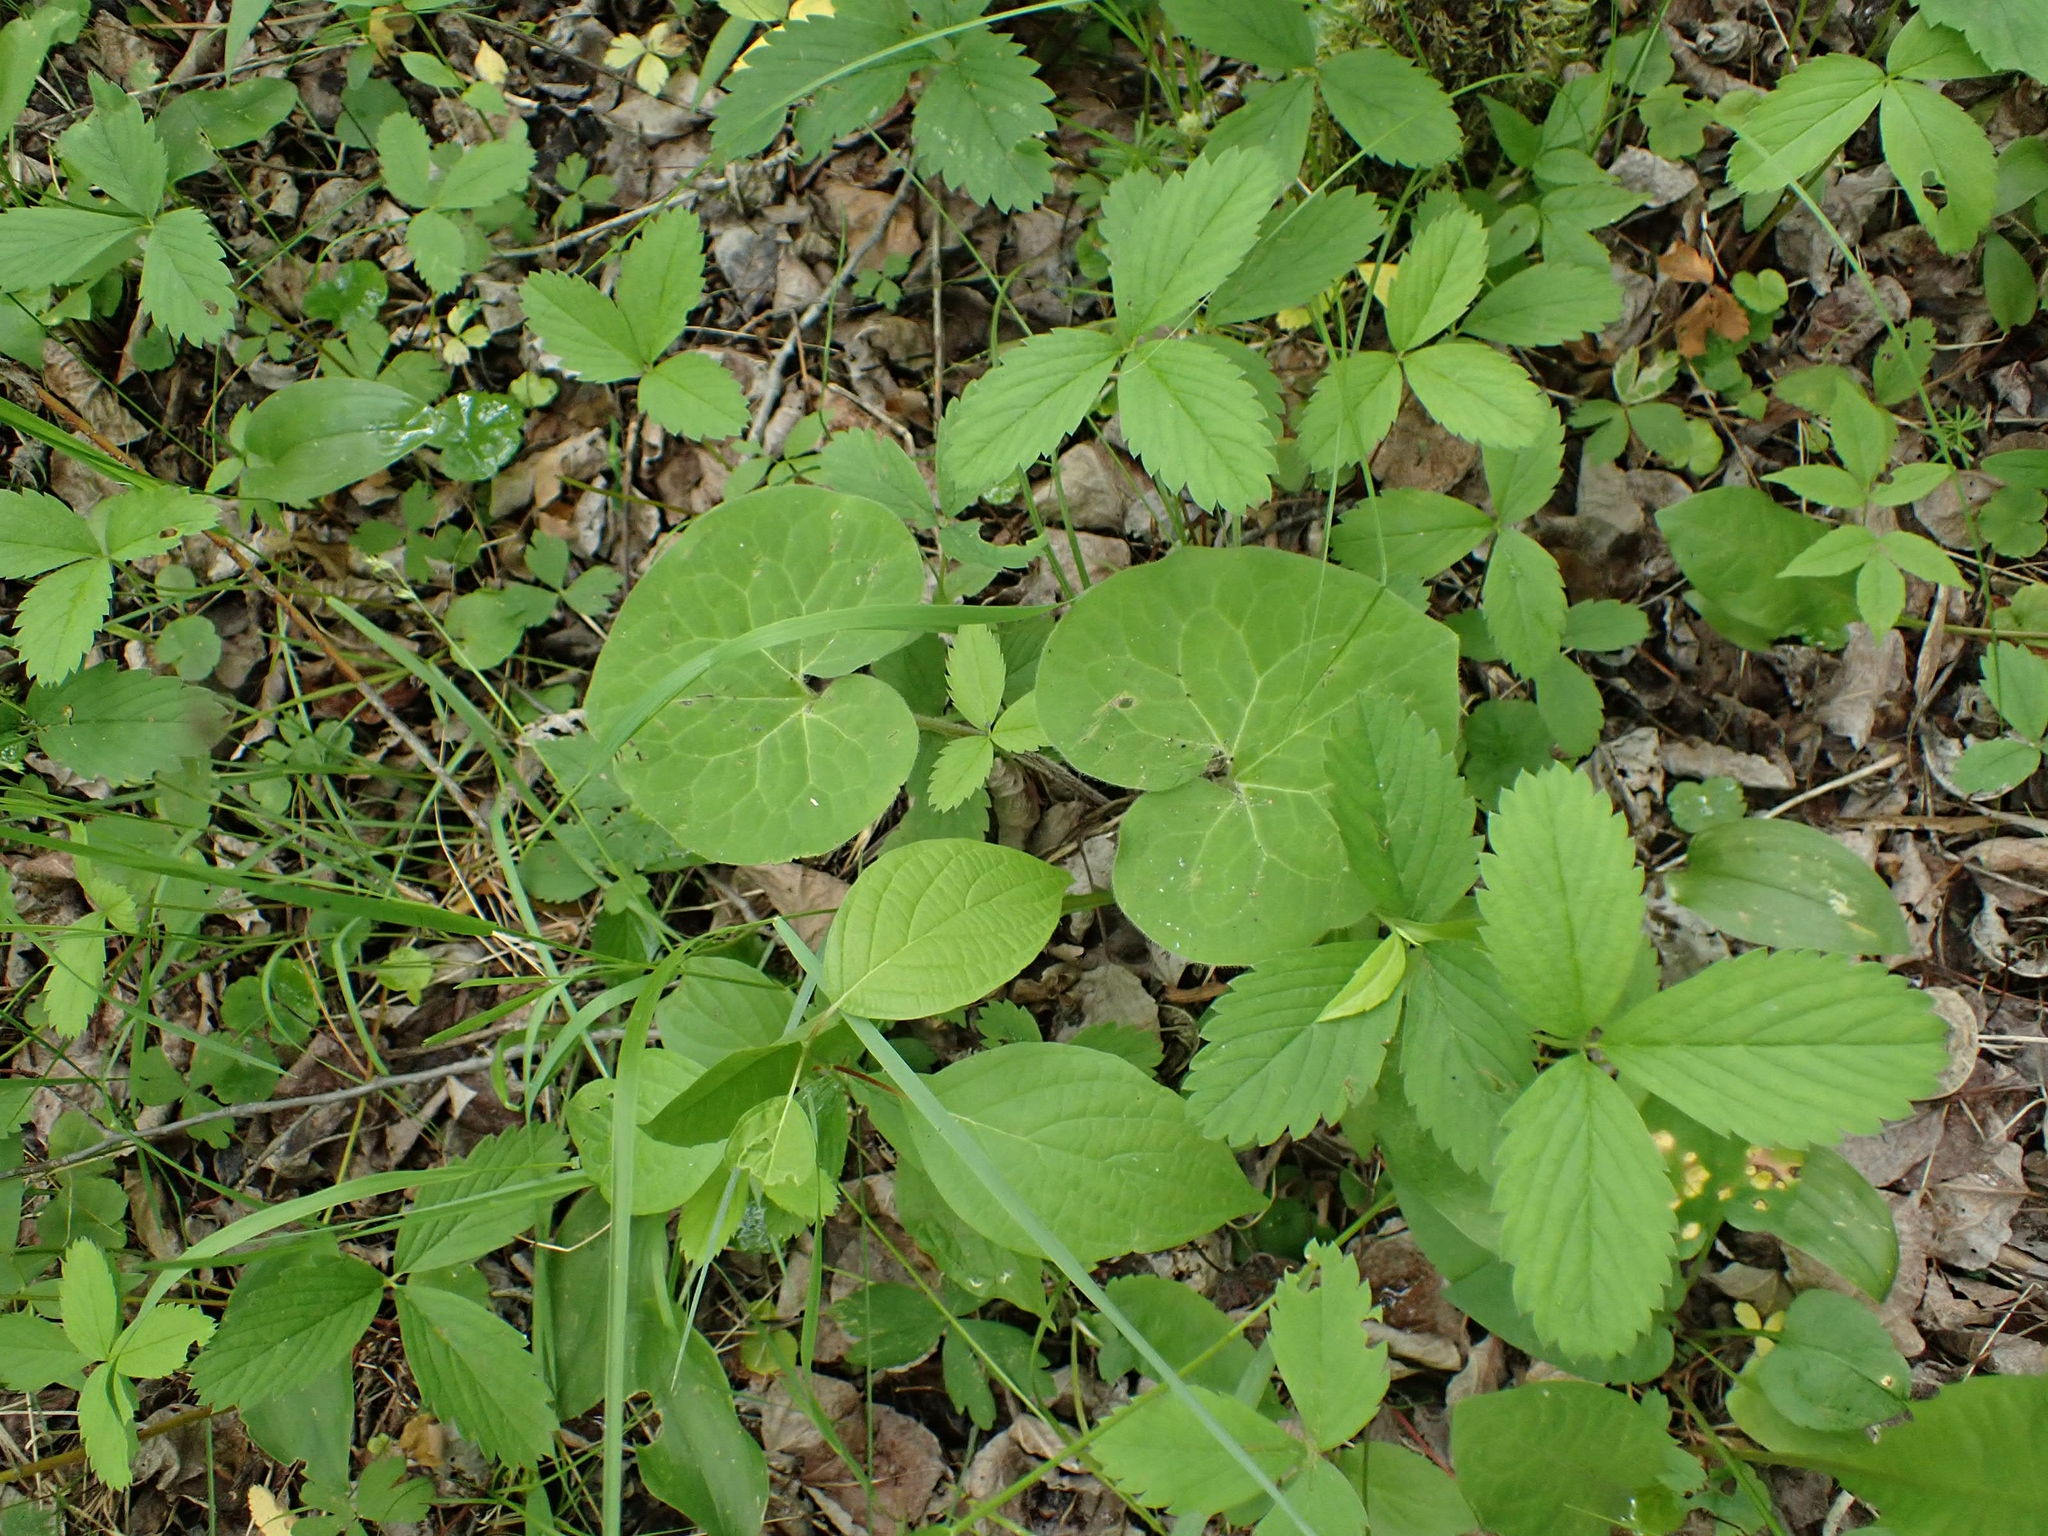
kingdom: Plantae
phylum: Tracheophyta
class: Magnoliopsida
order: Piperales
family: Aristolochiaceae
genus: Asarum
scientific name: Asarum canadense
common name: Wild ginger
